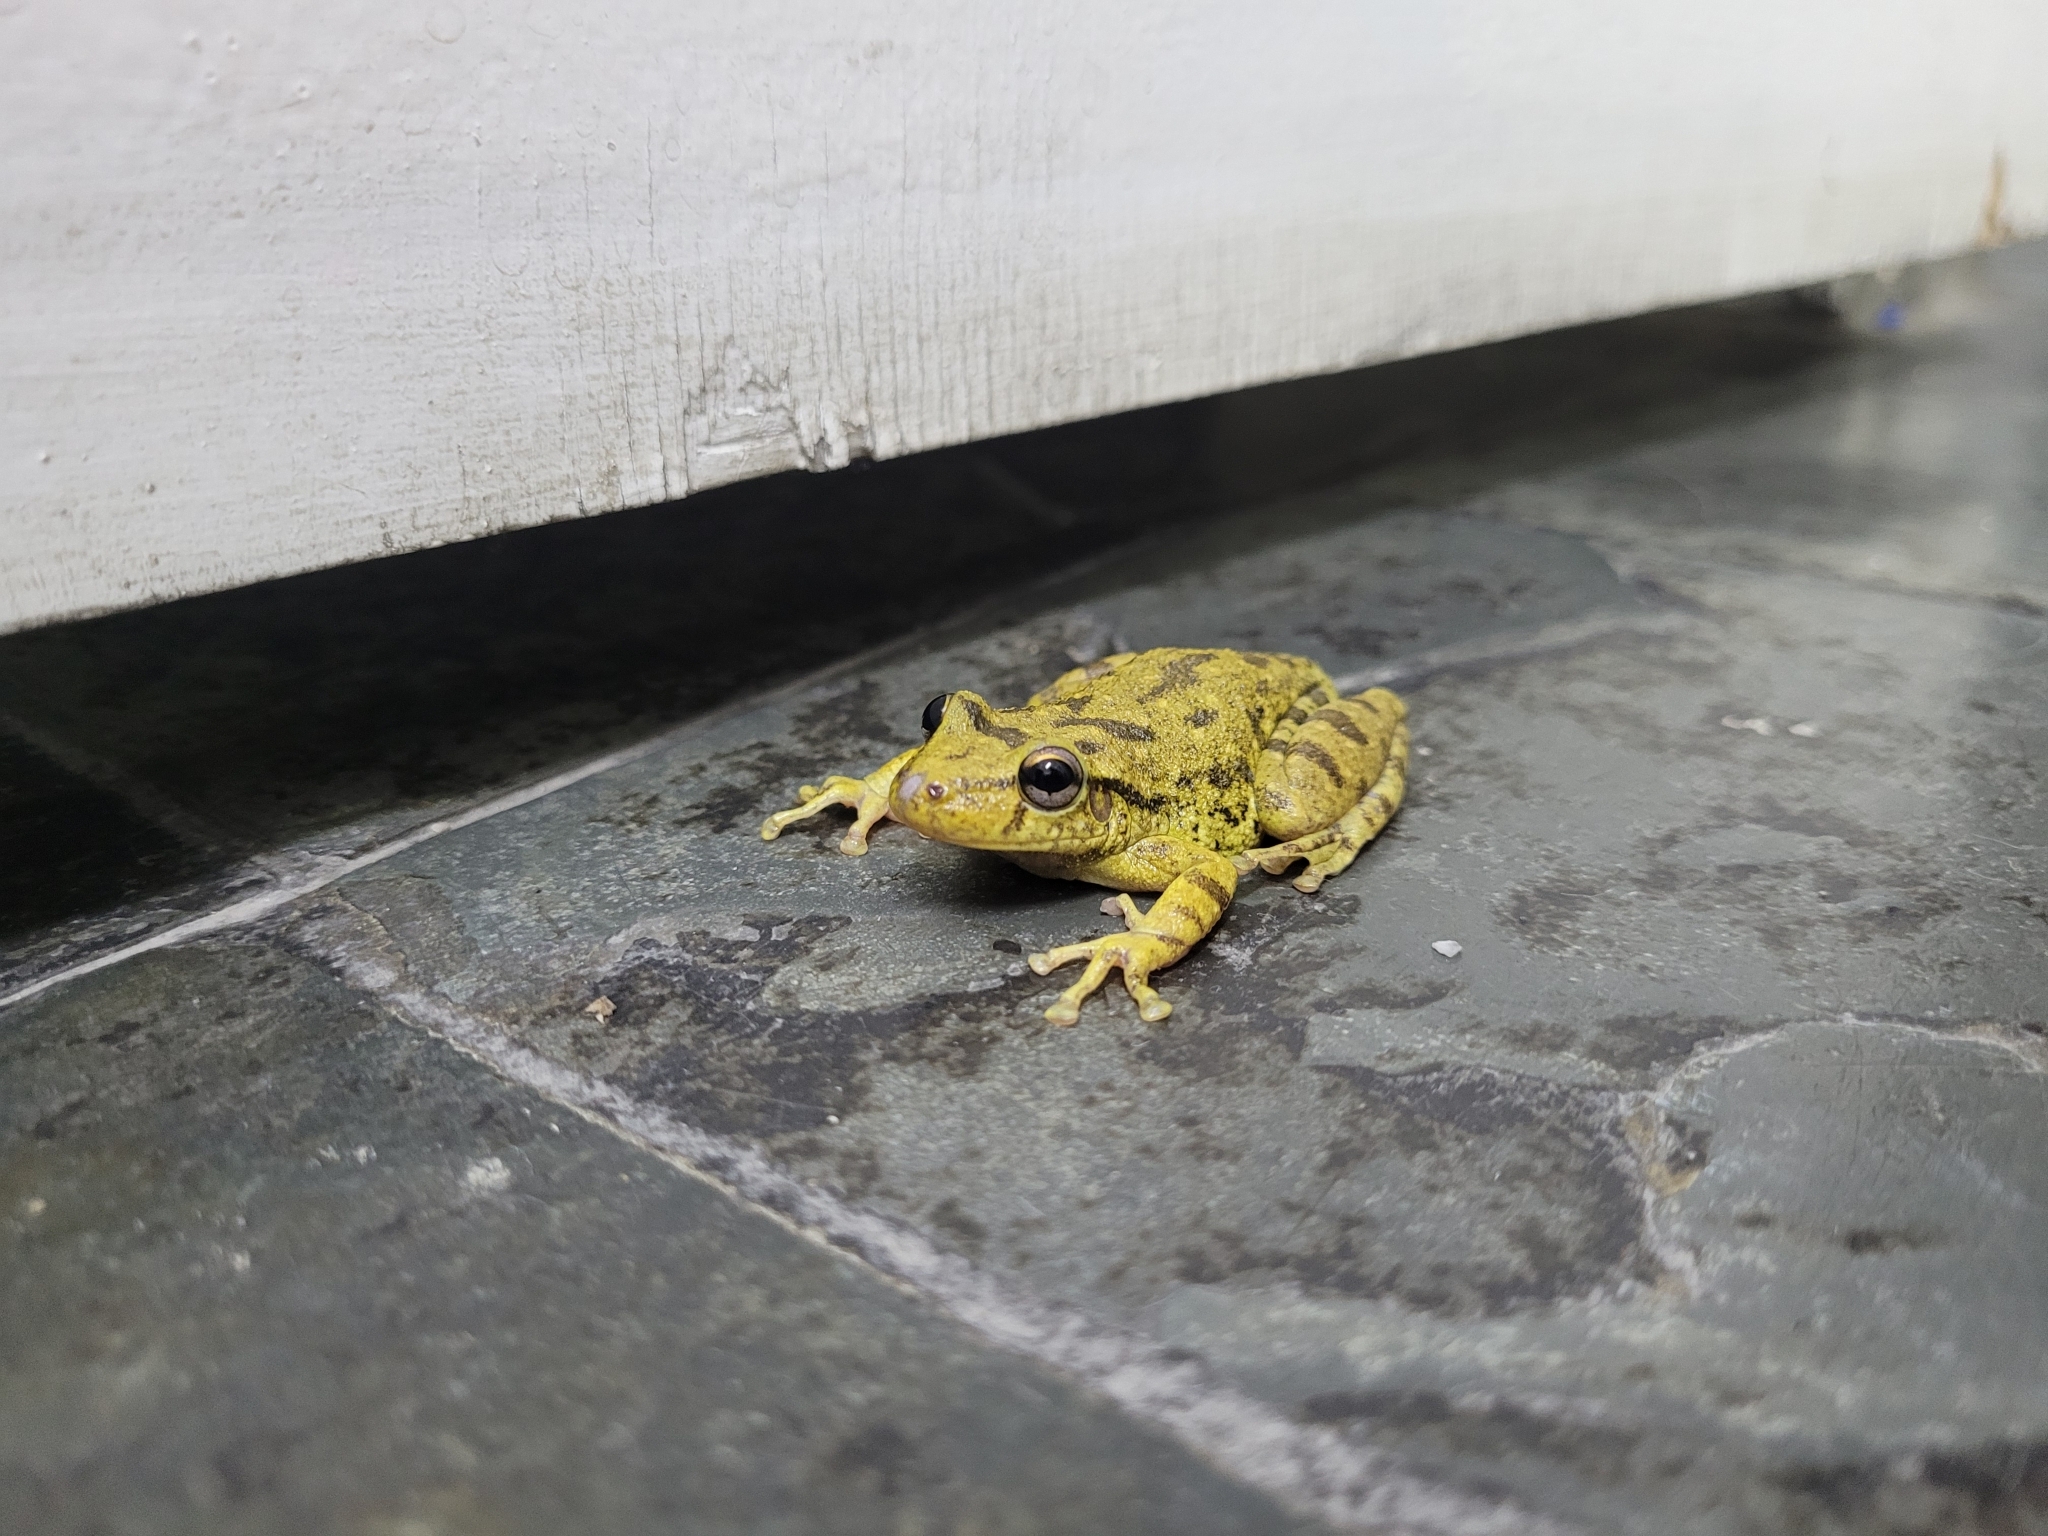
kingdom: Animalia
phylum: Chordata
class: Amphibia
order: Anura
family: Hylidae
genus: Scinax
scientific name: Scinax fuscovarius
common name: Fuscous-blotched treefrog
